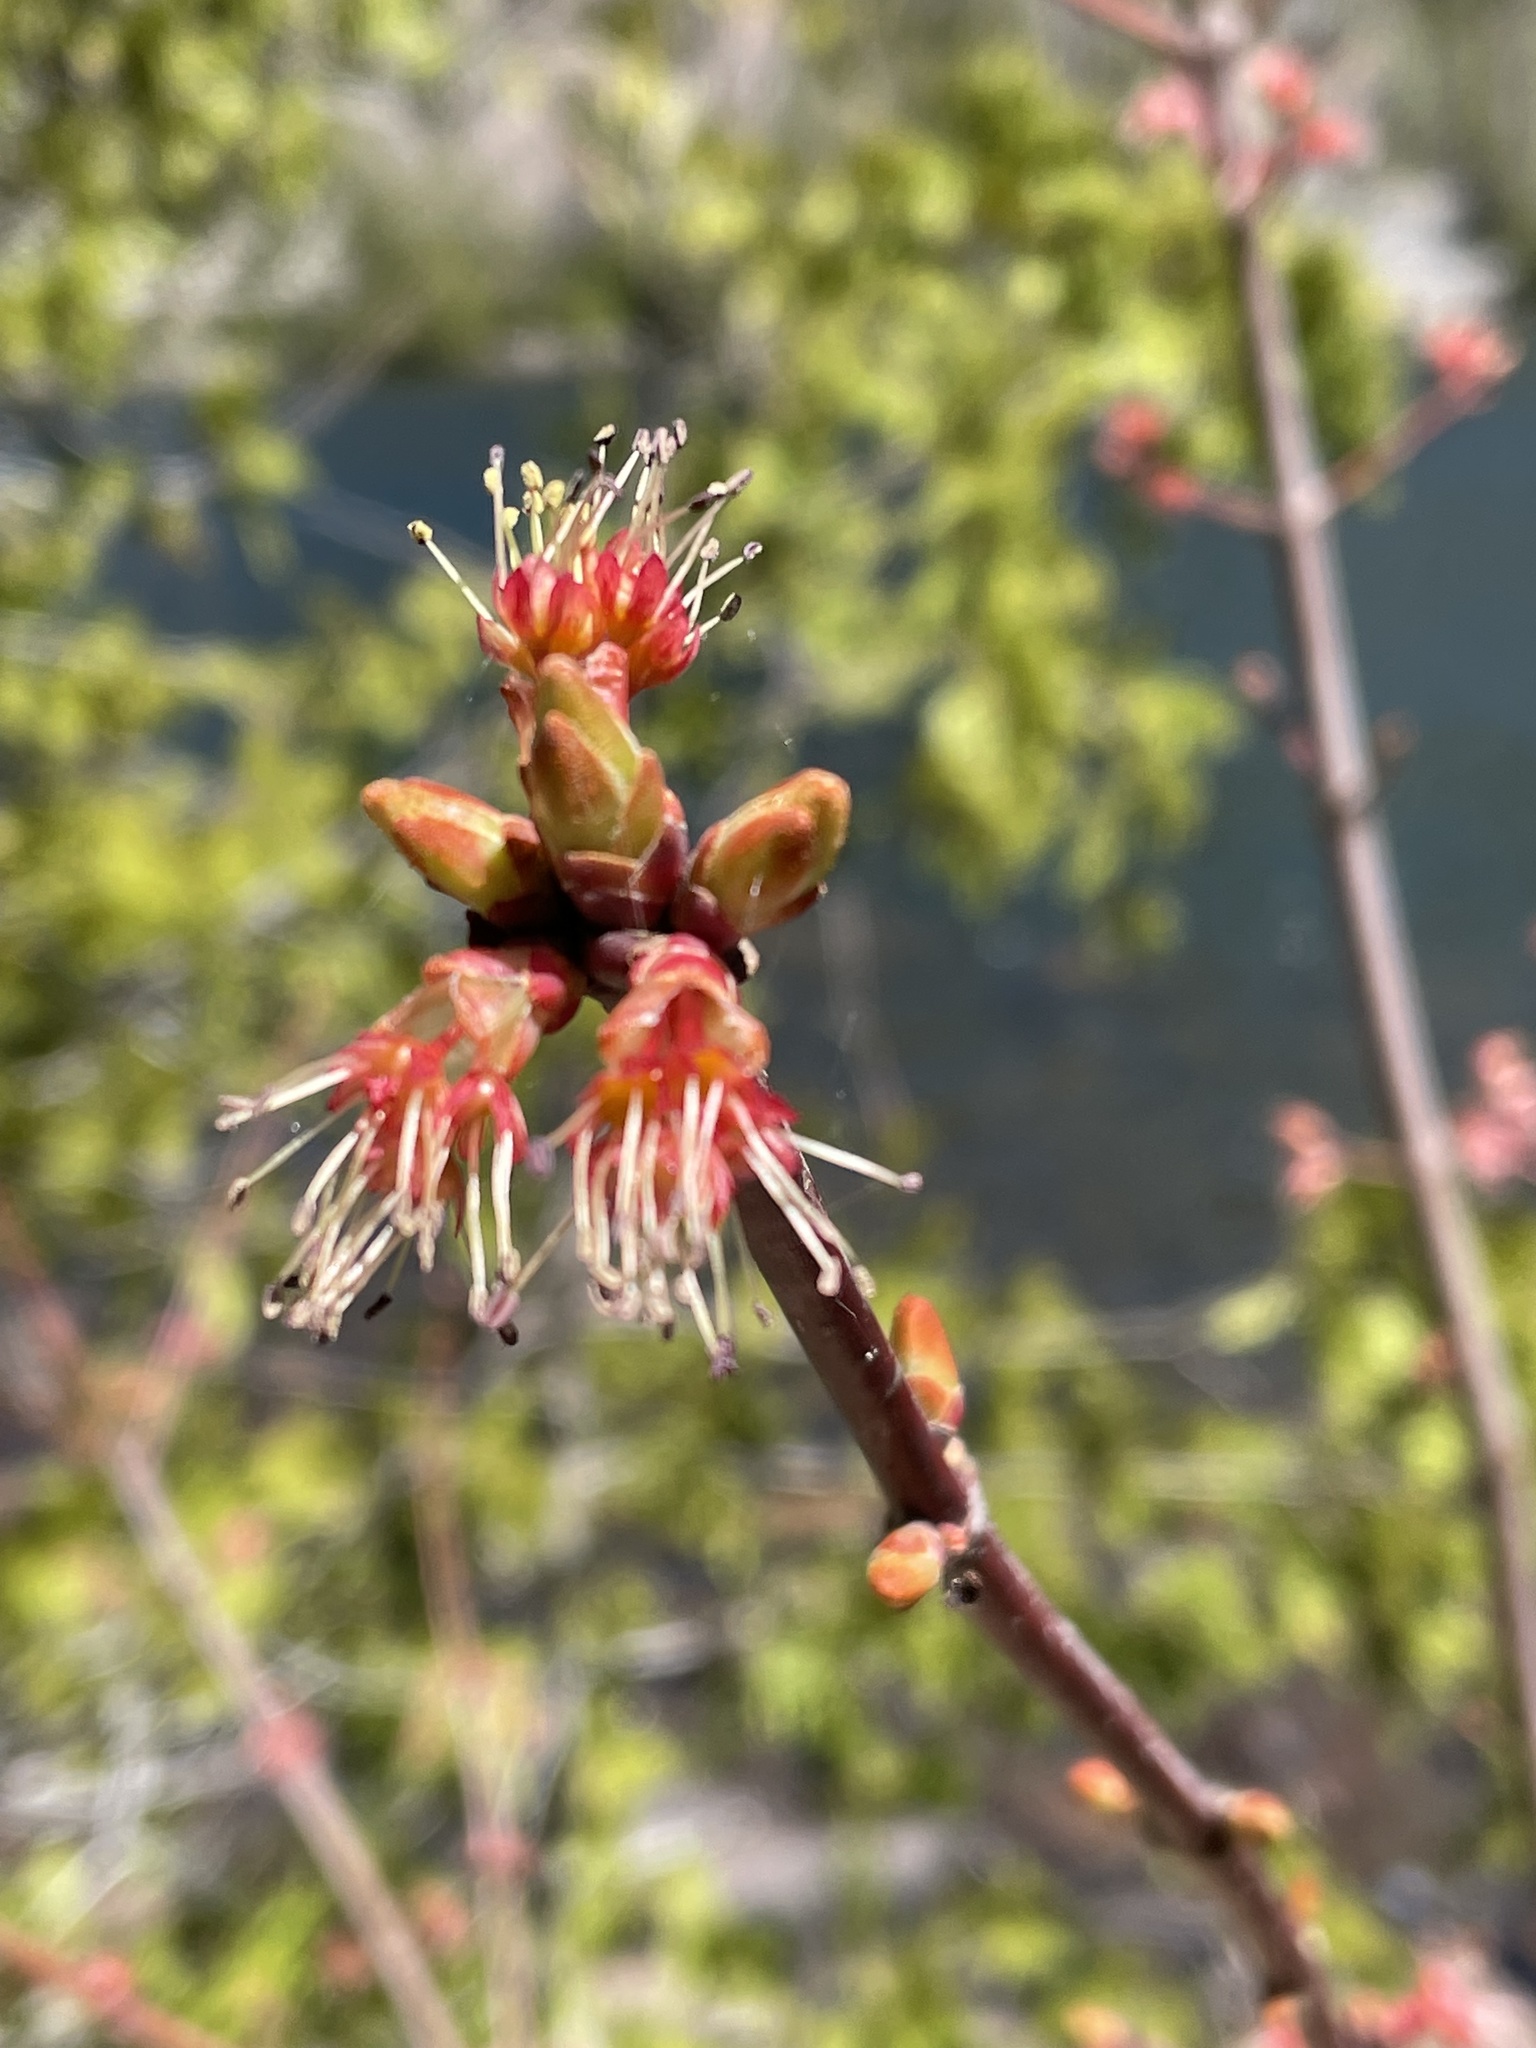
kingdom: Plantae
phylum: Tracheophyta
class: Magnoliopsida
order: Sapindales
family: Sapindaceae
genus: Acer
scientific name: Acer rubrum
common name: Red maple
